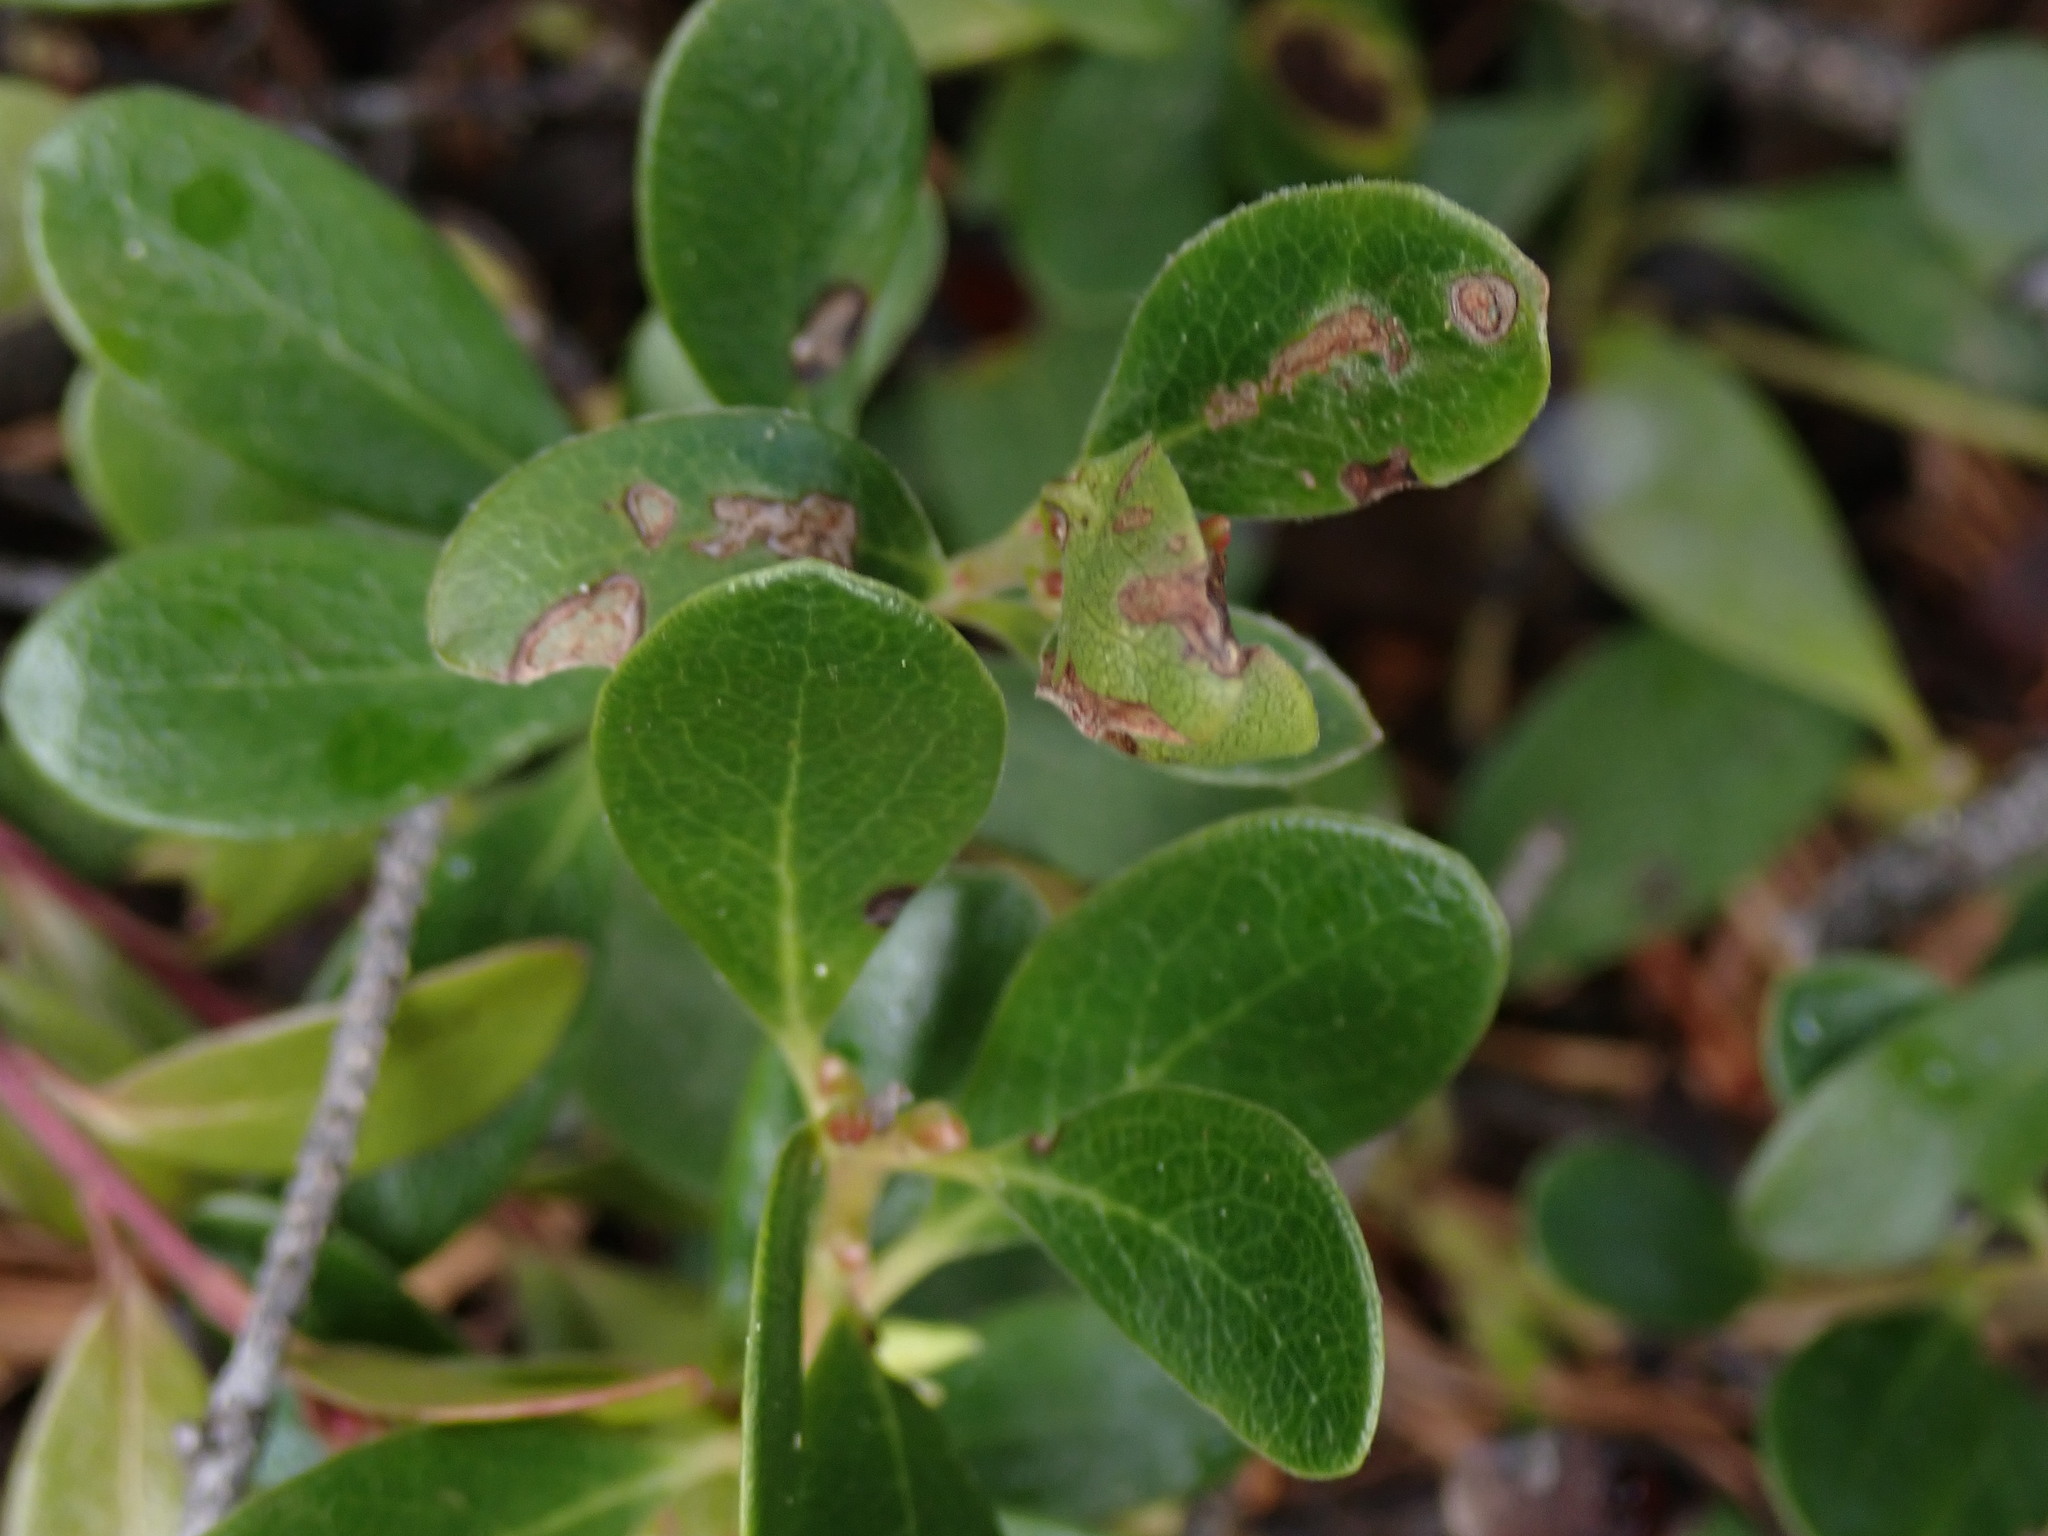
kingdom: Plantae
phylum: Tracheophyta
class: Magnoliopsida
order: Ericales
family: Ericaceae
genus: Arctostaphylos
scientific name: Arctostaphylos uva-ursi
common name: Bearberry
